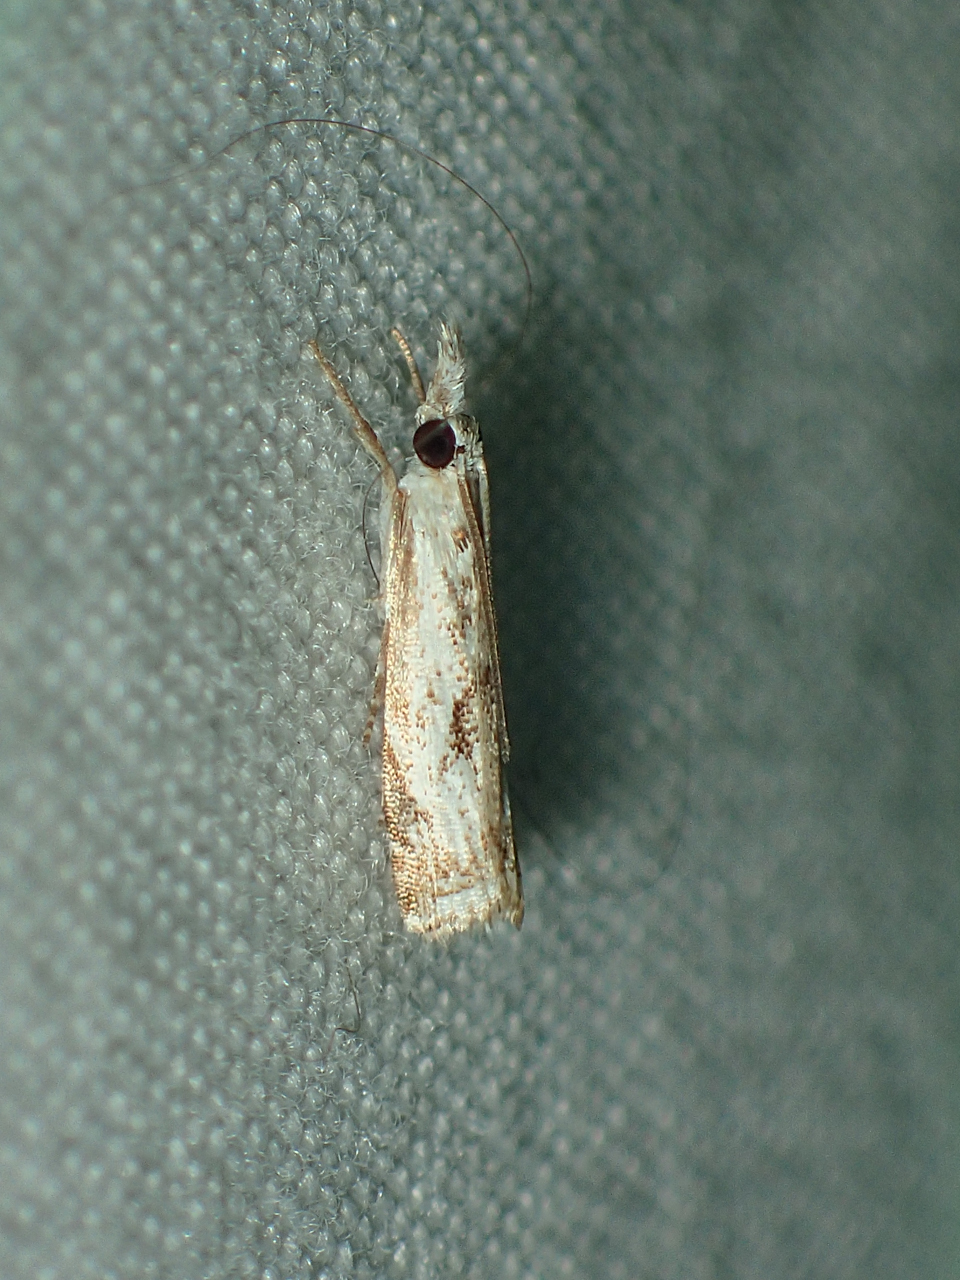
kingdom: Animalia
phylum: Arthropoda
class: Insecta
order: Lepidoptera
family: Crambidae
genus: Microcrambus
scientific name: Microcrambus kimballi
